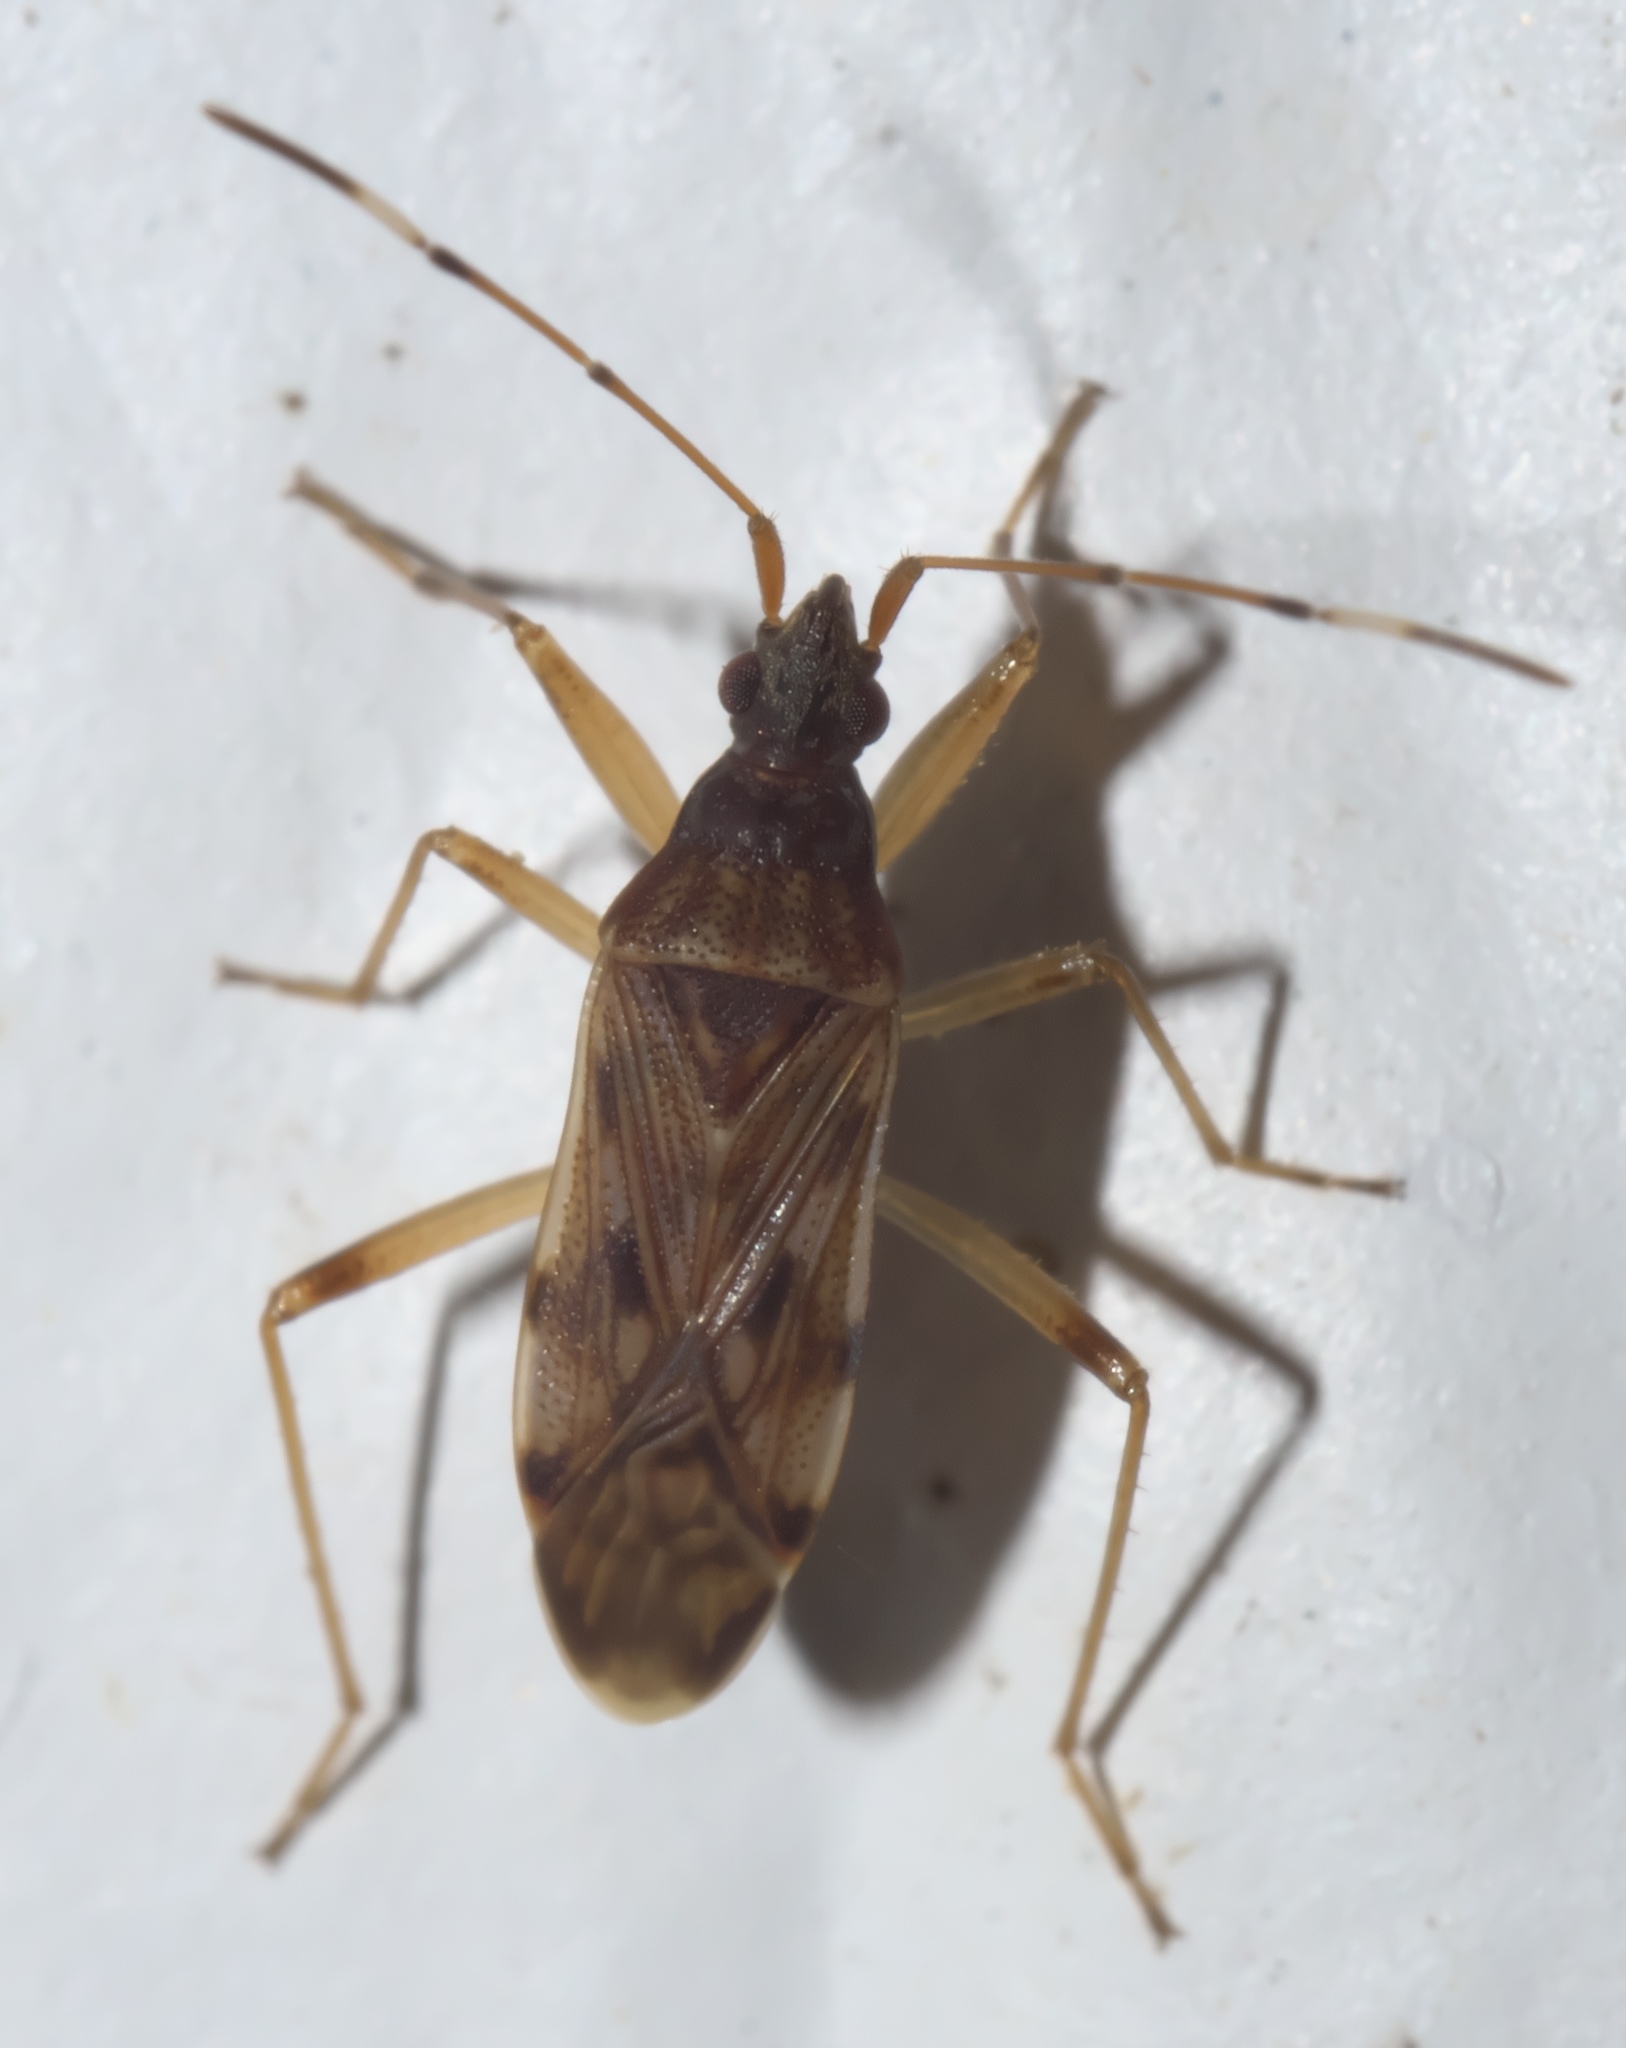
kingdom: Animalia
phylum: Arthropoda
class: Insecta
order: Hemiptera
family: Rhyparochromidae
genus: Ozophora
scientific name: Ozophora picturata
